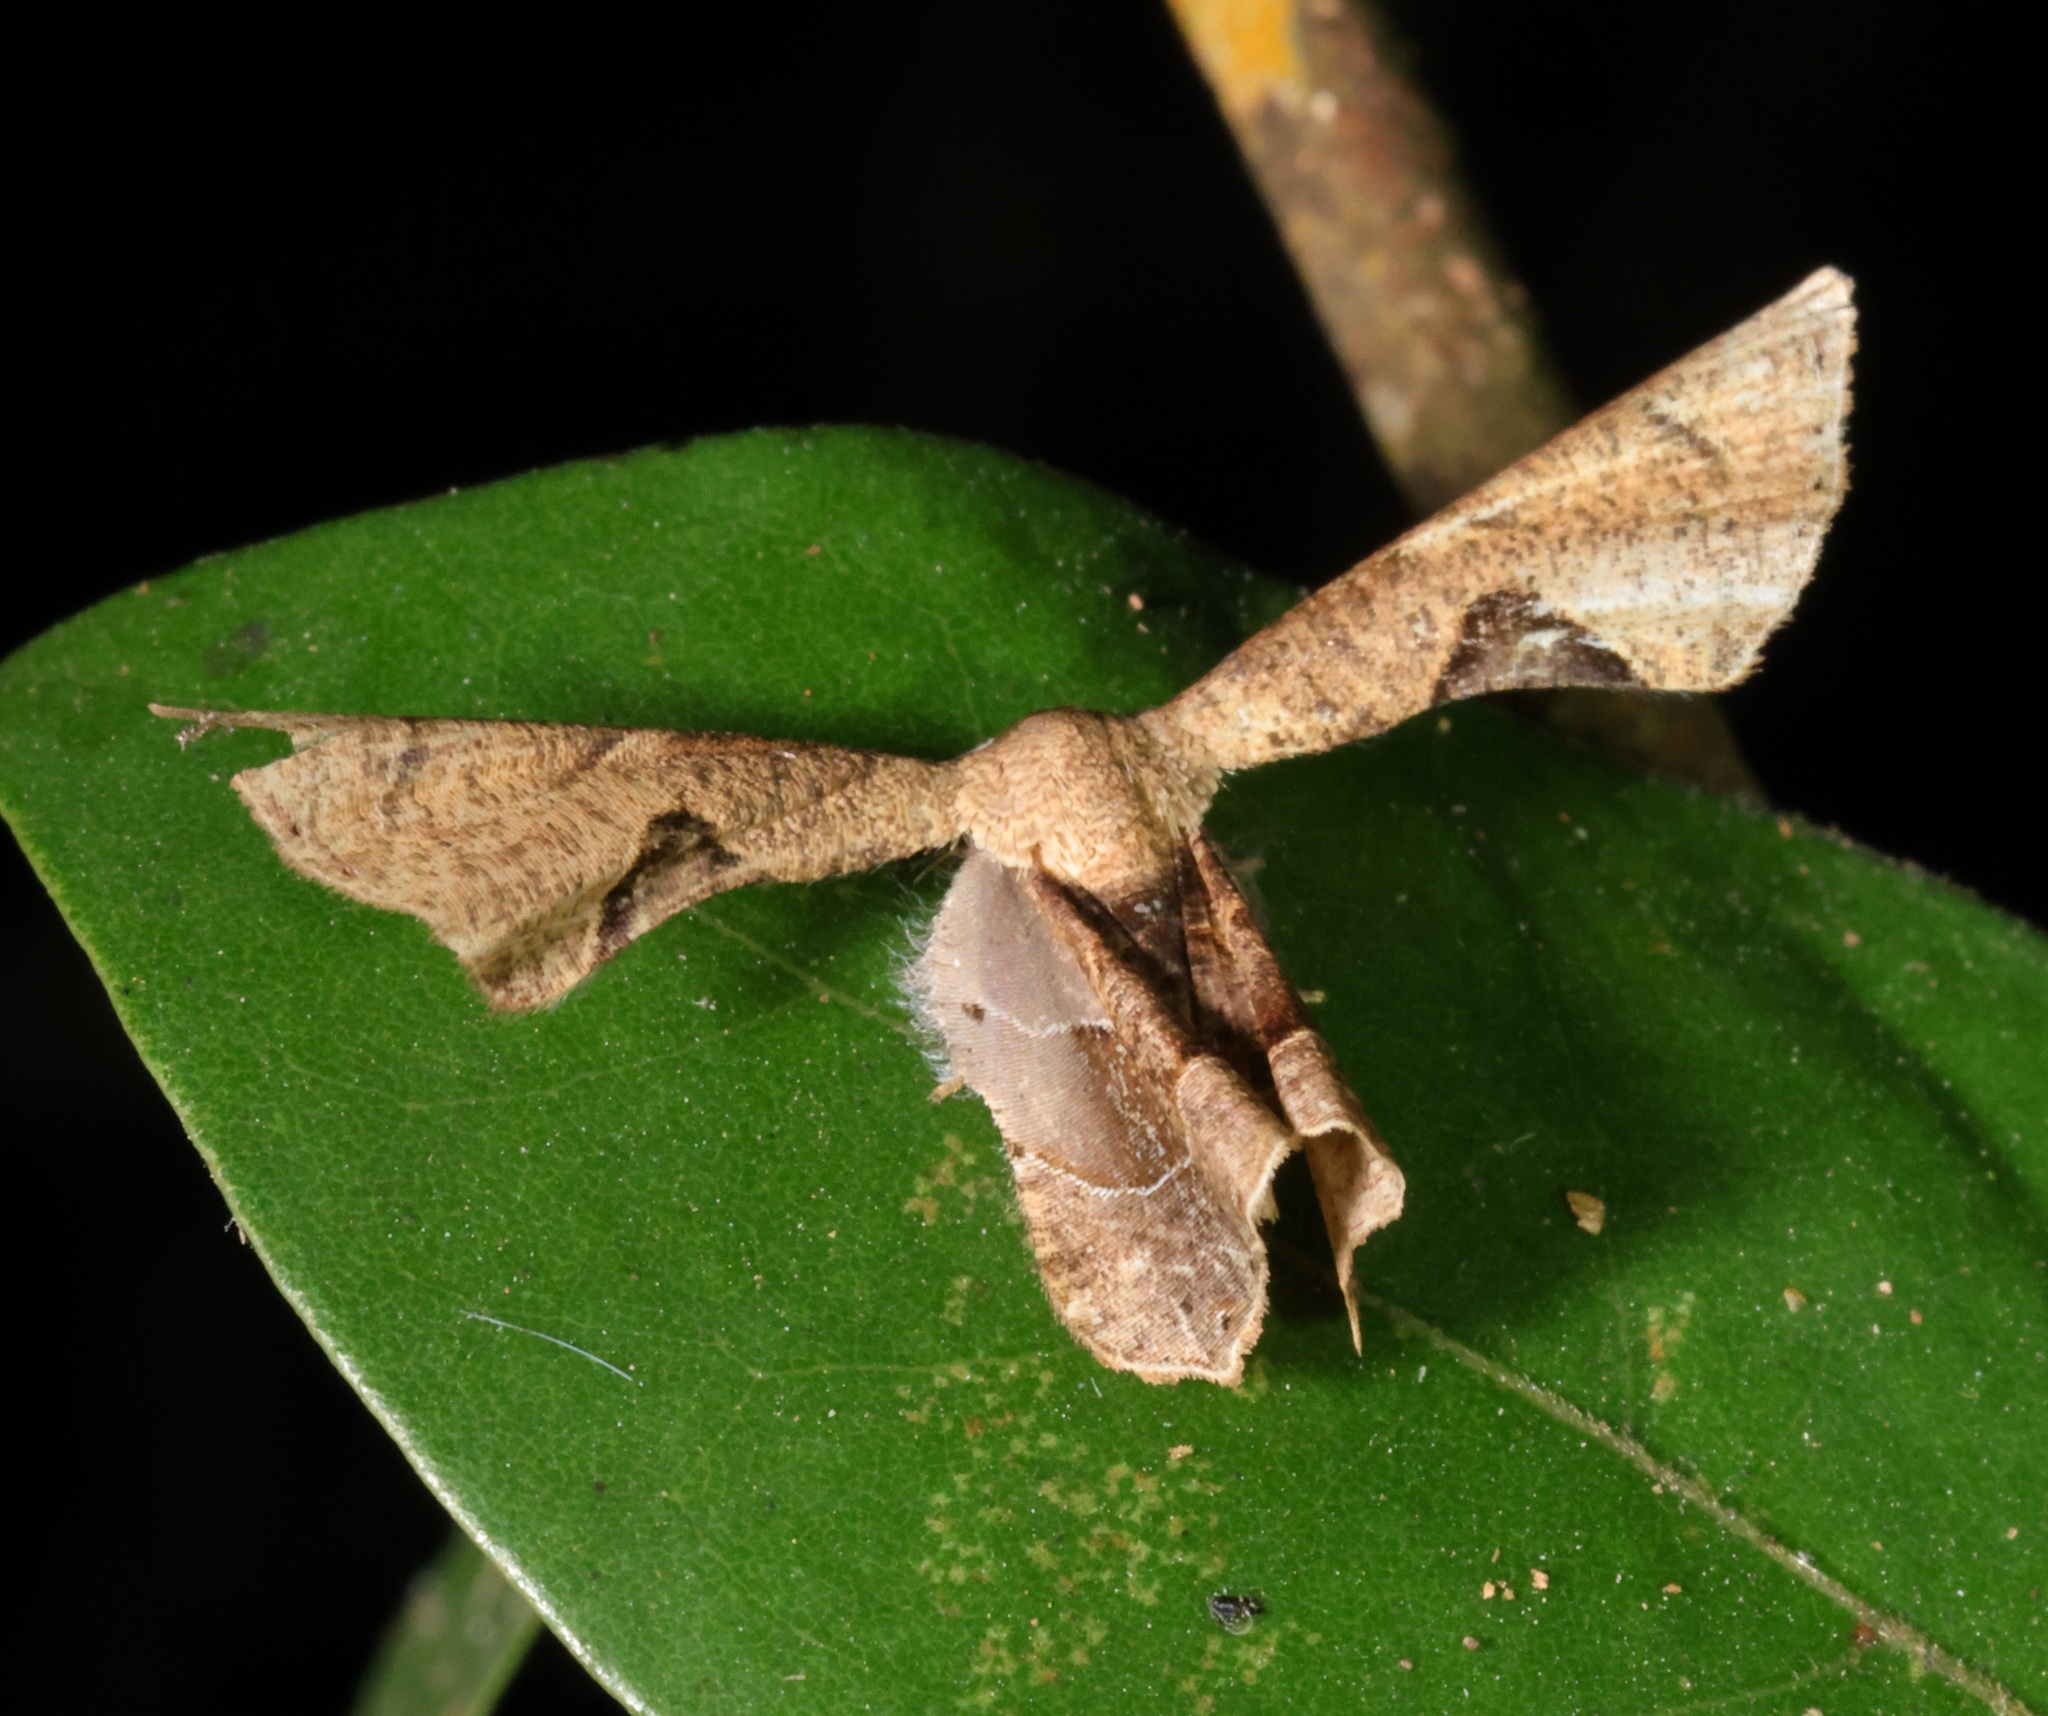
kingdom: Animalia
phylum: Arthropoda
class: Insecta
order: Lepidoptera
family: Uraniidae
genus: Phazaca
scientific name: Phazaca leucocera
